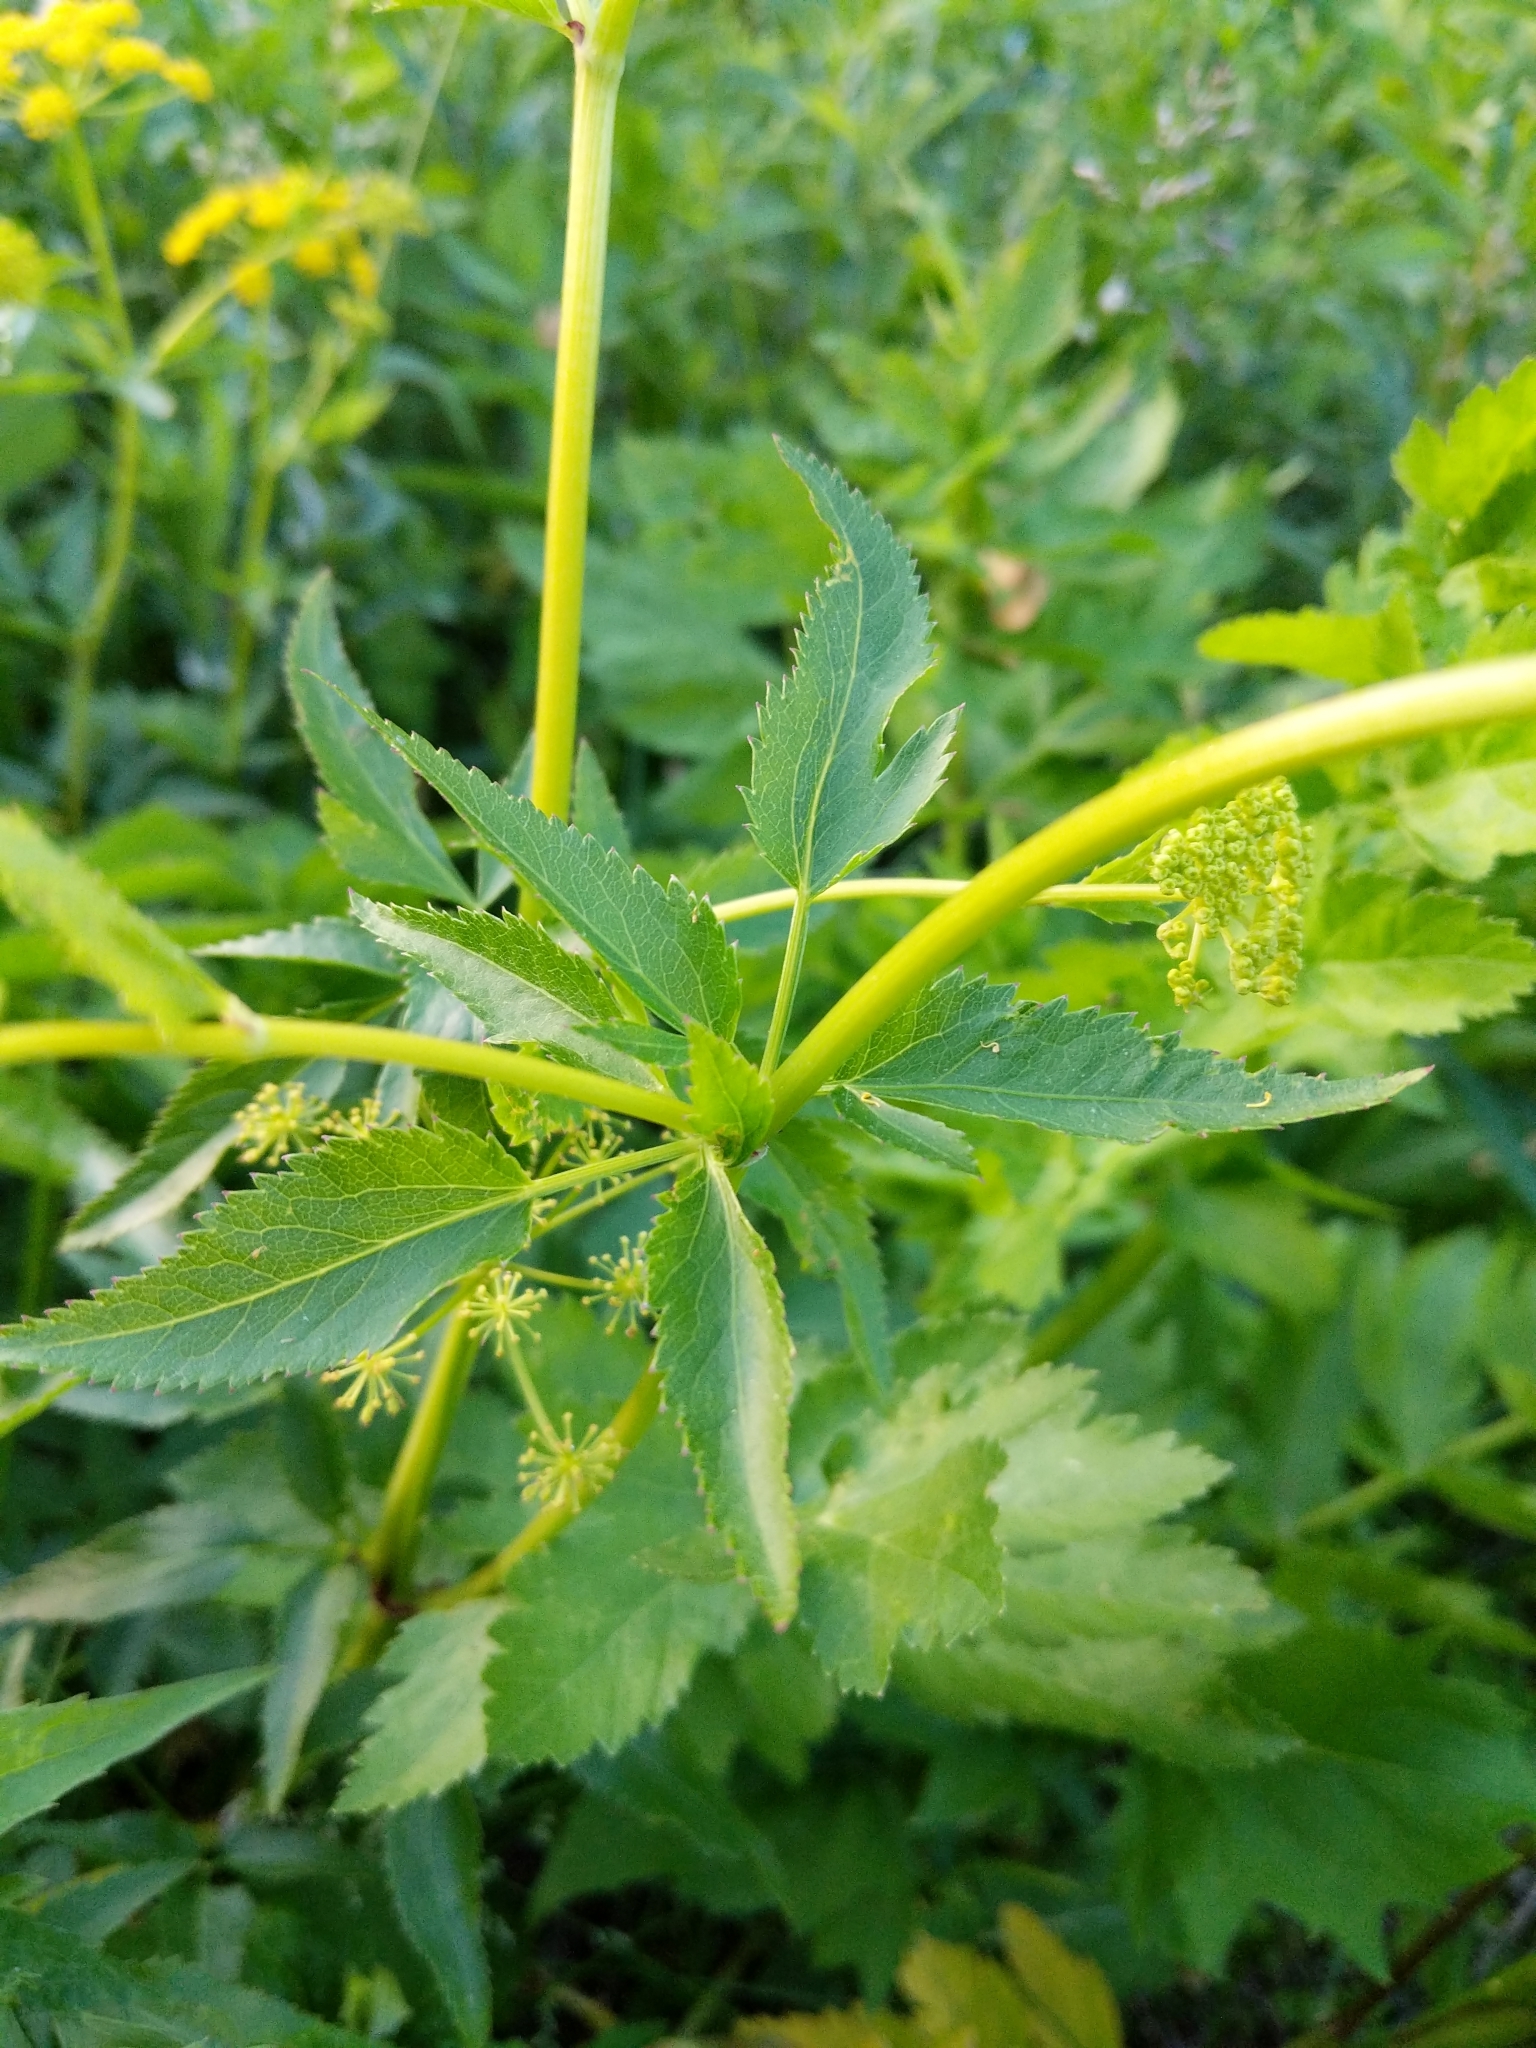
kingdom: Plantae
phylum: Tracheophyta
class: Magnoliopsida
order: Apiales
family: Apiaceae
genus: Zizia
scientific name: Zizia aurea
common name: Golden alexanders
